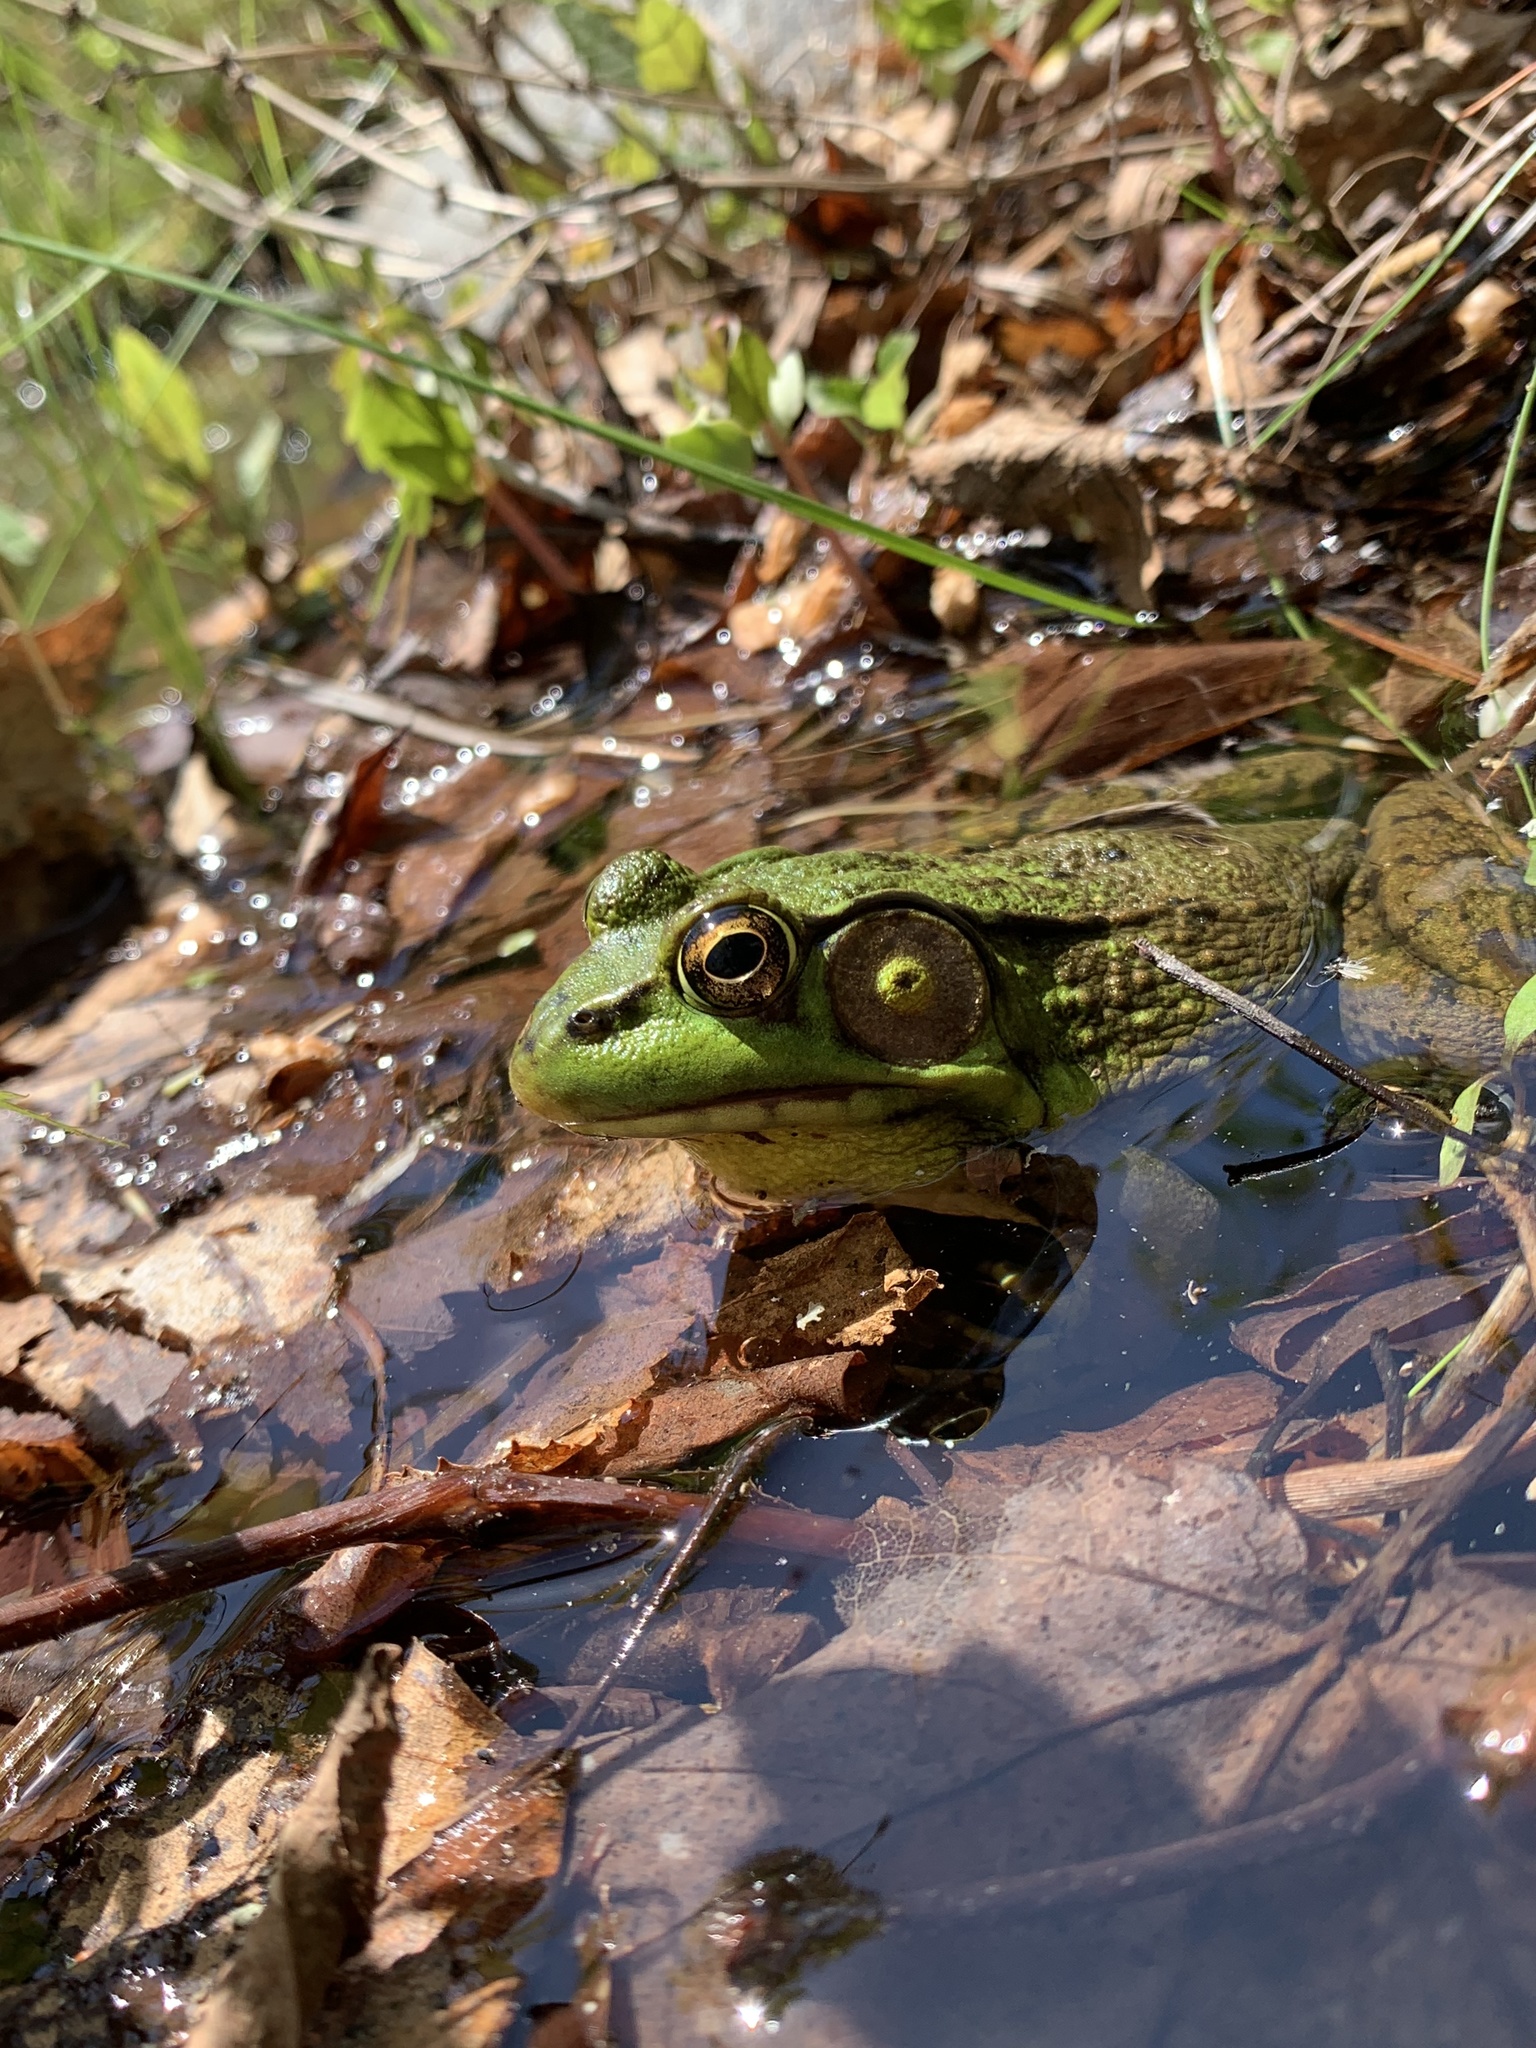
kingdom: Animalia
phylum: Chordata
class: Amphibia
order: Anura
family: Ranidae
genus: Lithobates
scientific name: Lithobates clamitans
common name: Green frog
